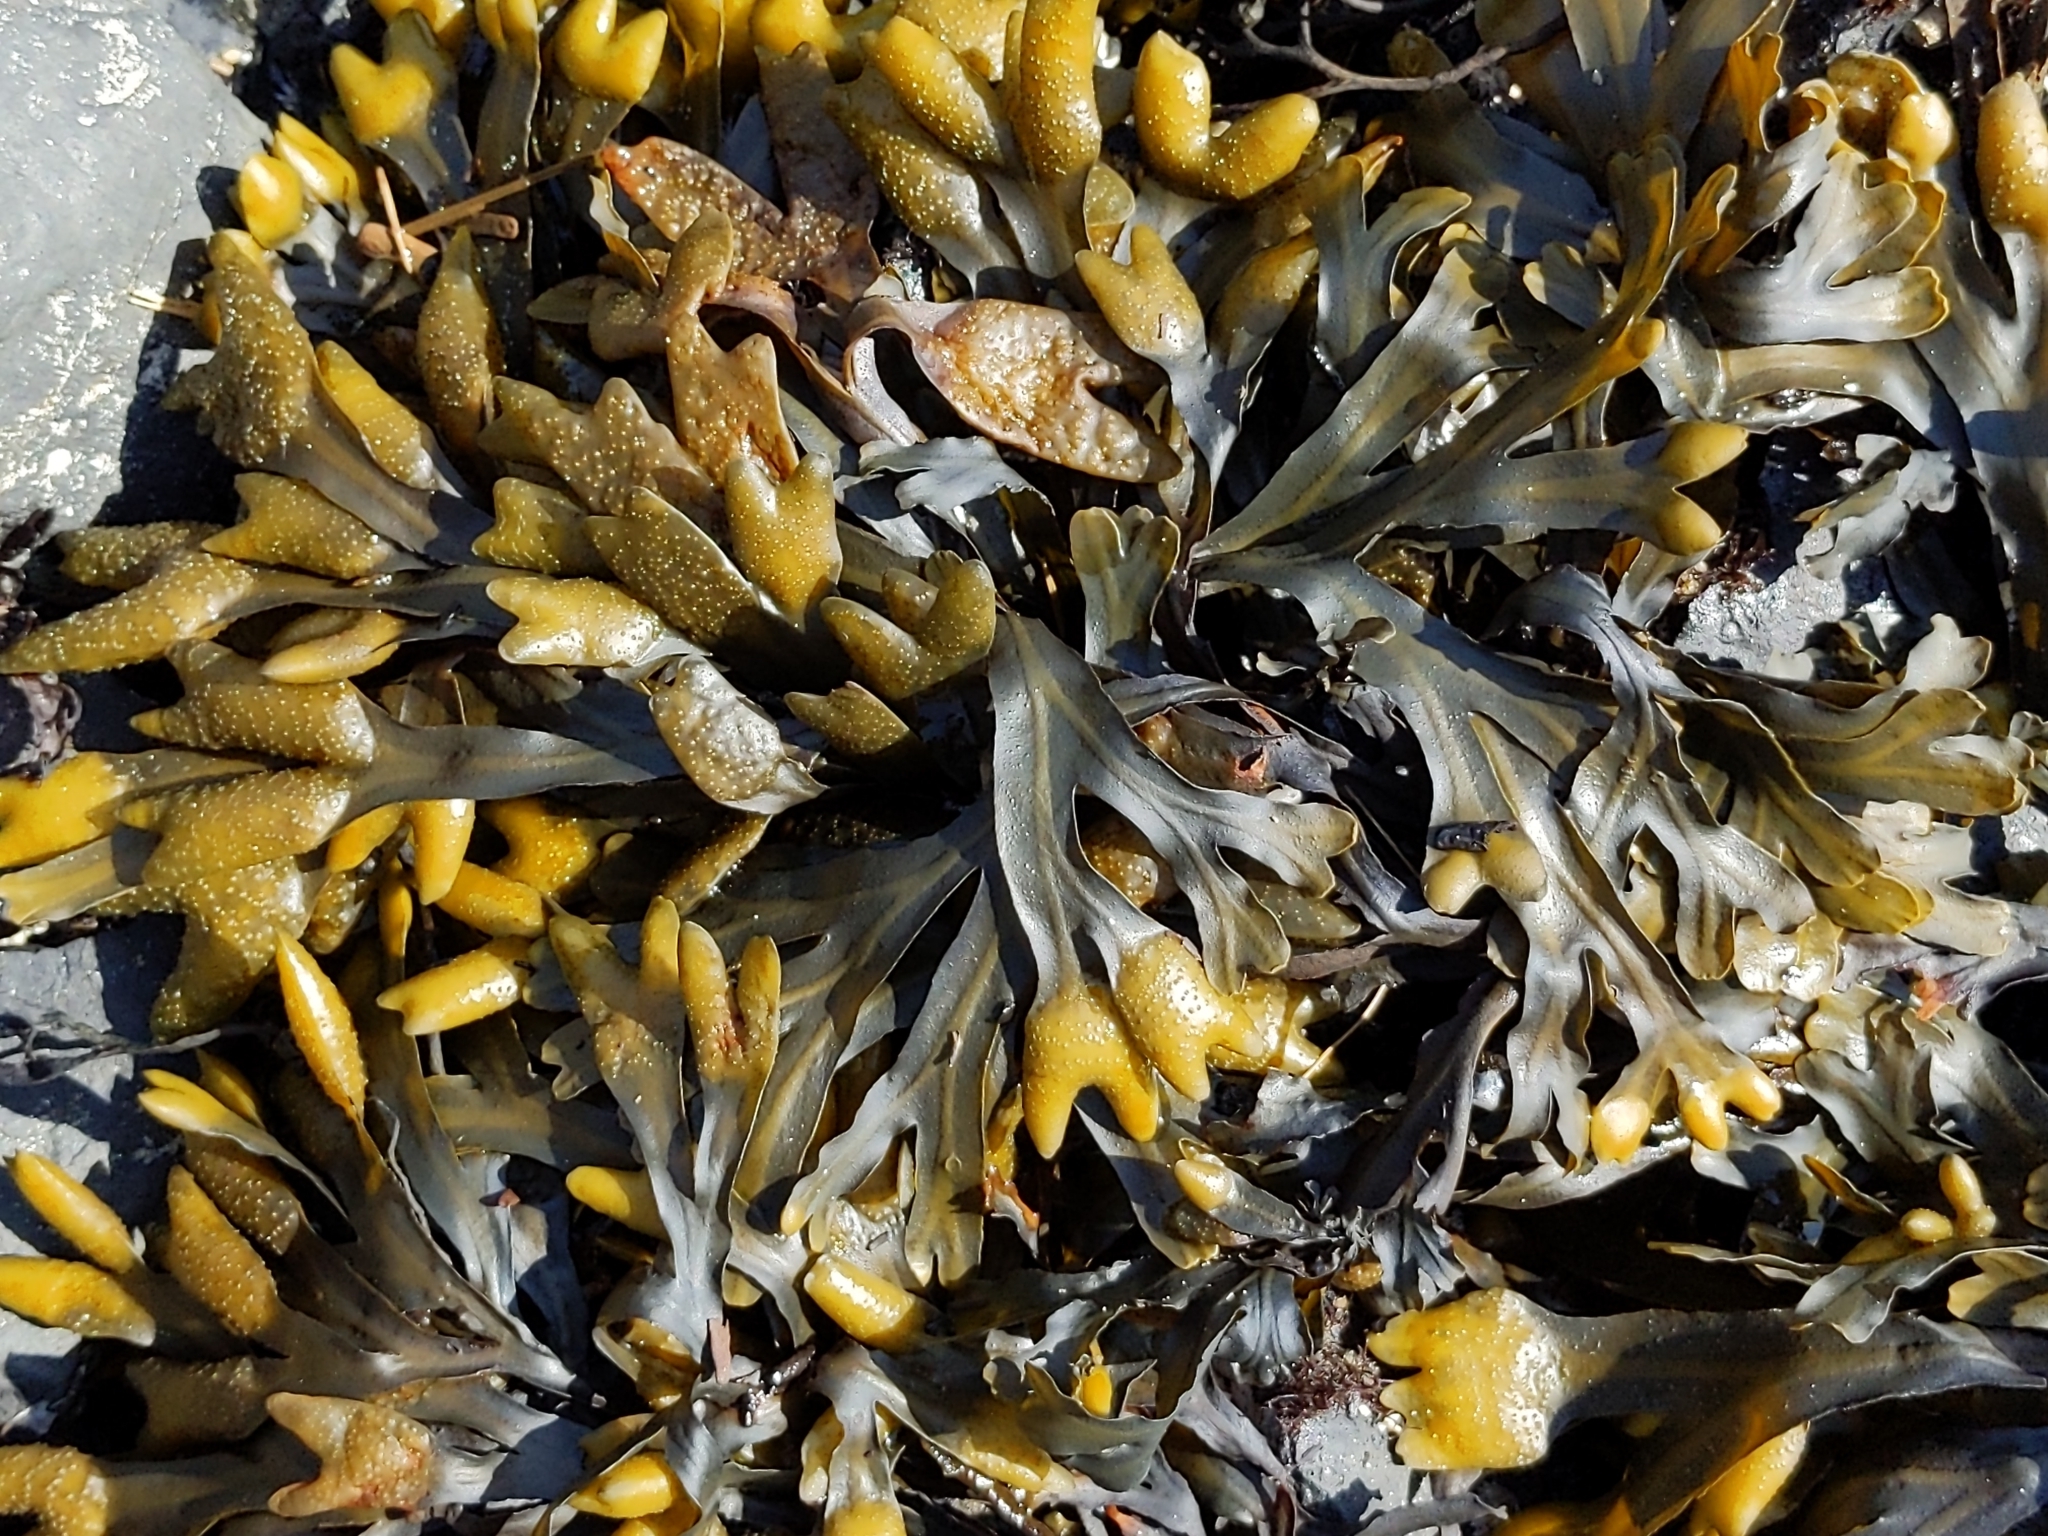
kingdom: Chromista
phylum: Ochrophyta
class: Phaeophyceae
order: Fucales
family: Fucaceae
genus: Fucus
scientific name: Fucus distichus
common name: Rockweed
